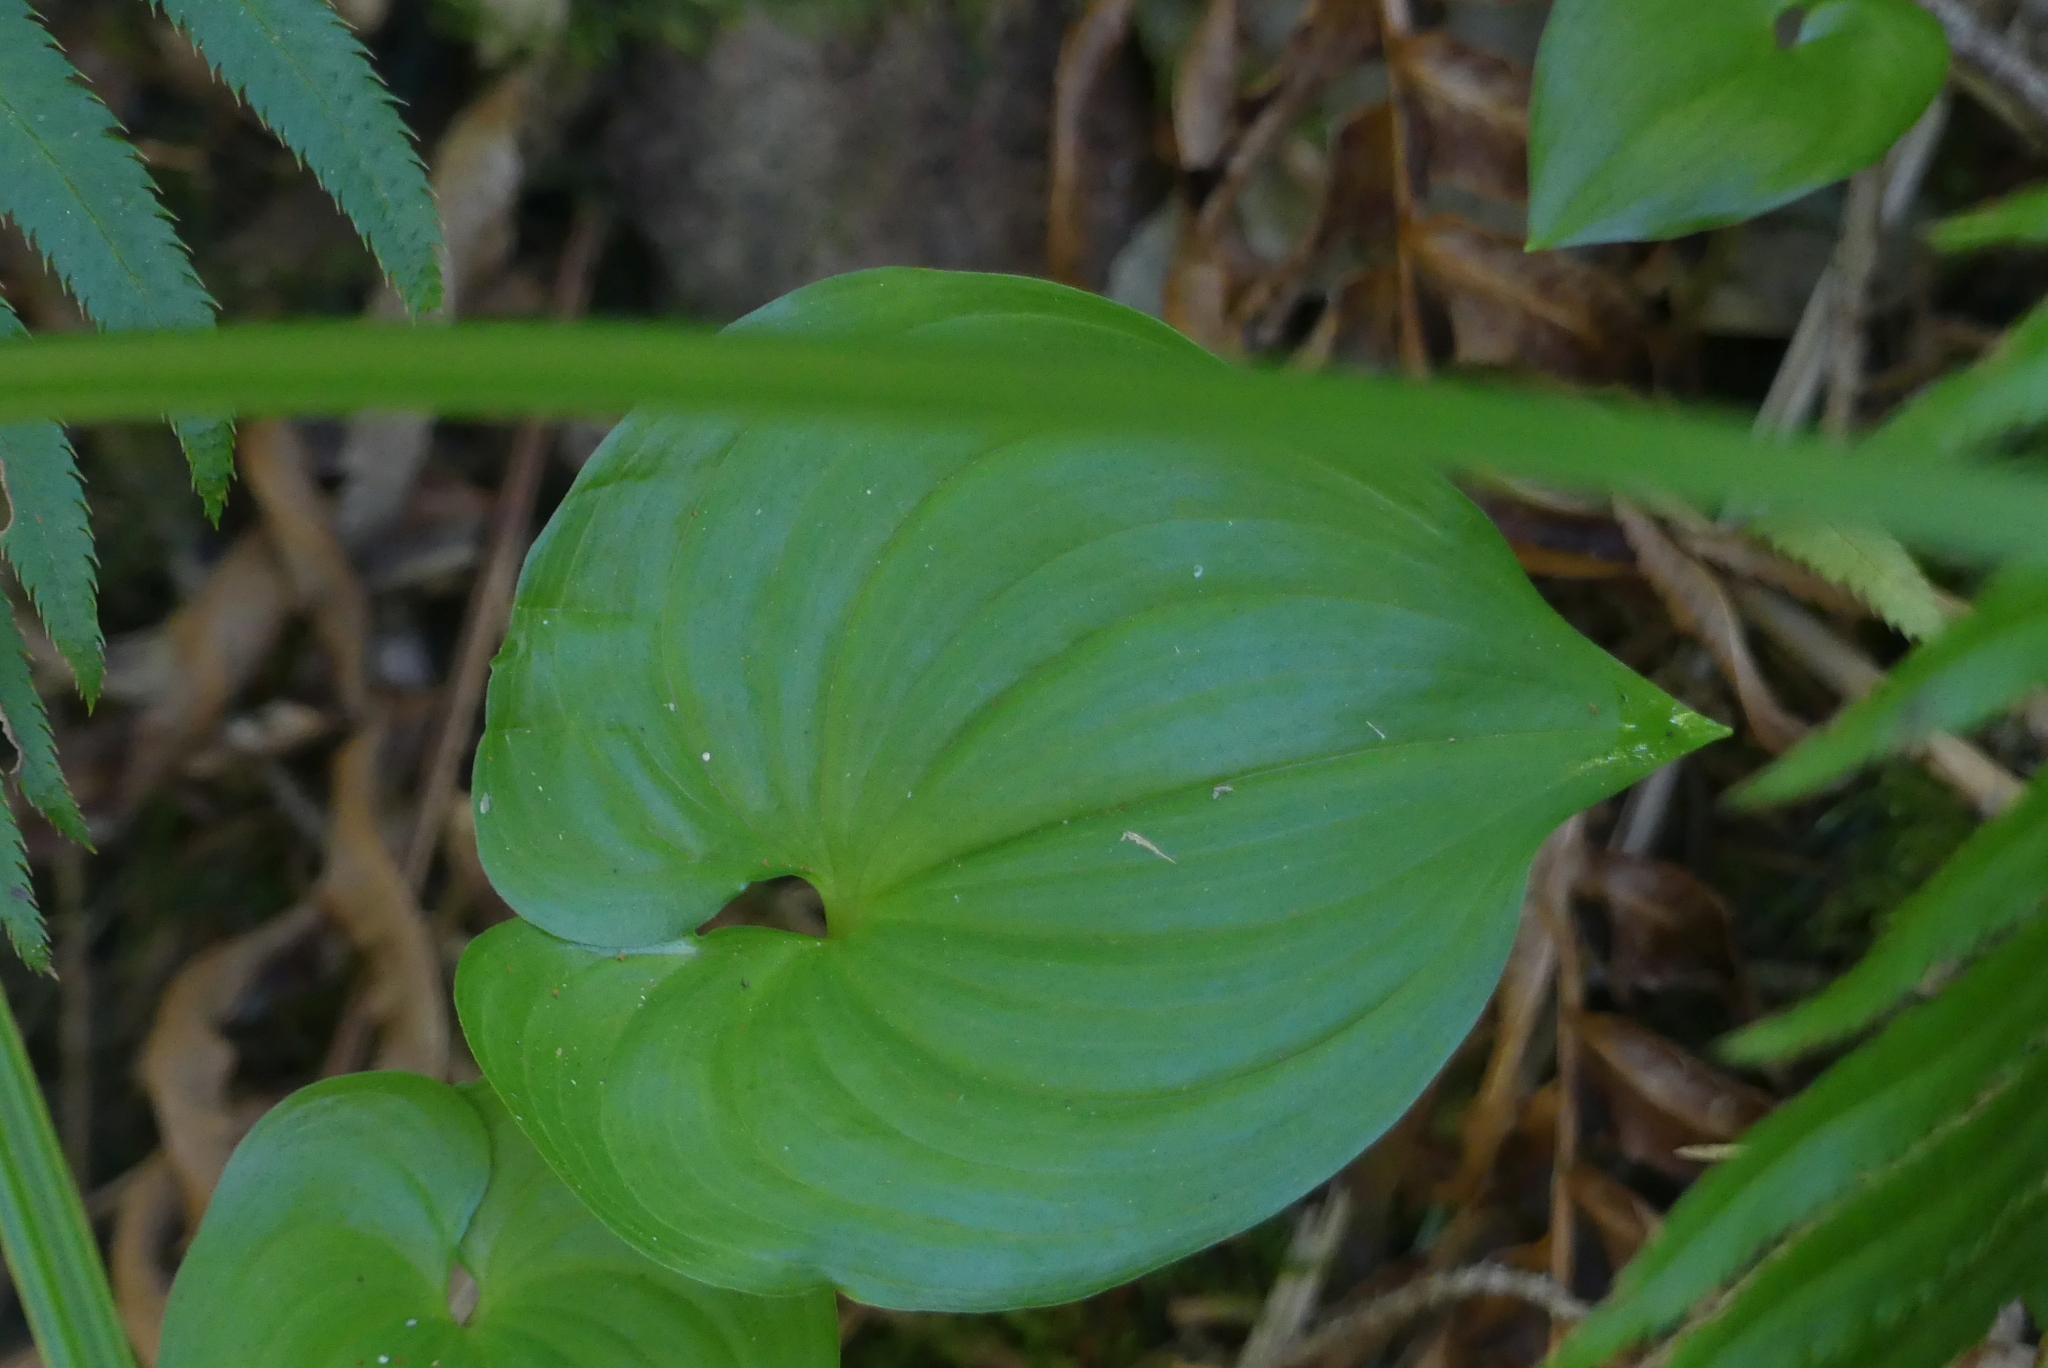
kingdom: Plantae
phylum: Tracheophyta
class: Liliopsida
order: Asparagales
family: Asparagaceae
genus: Maianthemum
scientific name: Maianthemum dilatatum
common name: False lily-of-the-valley
